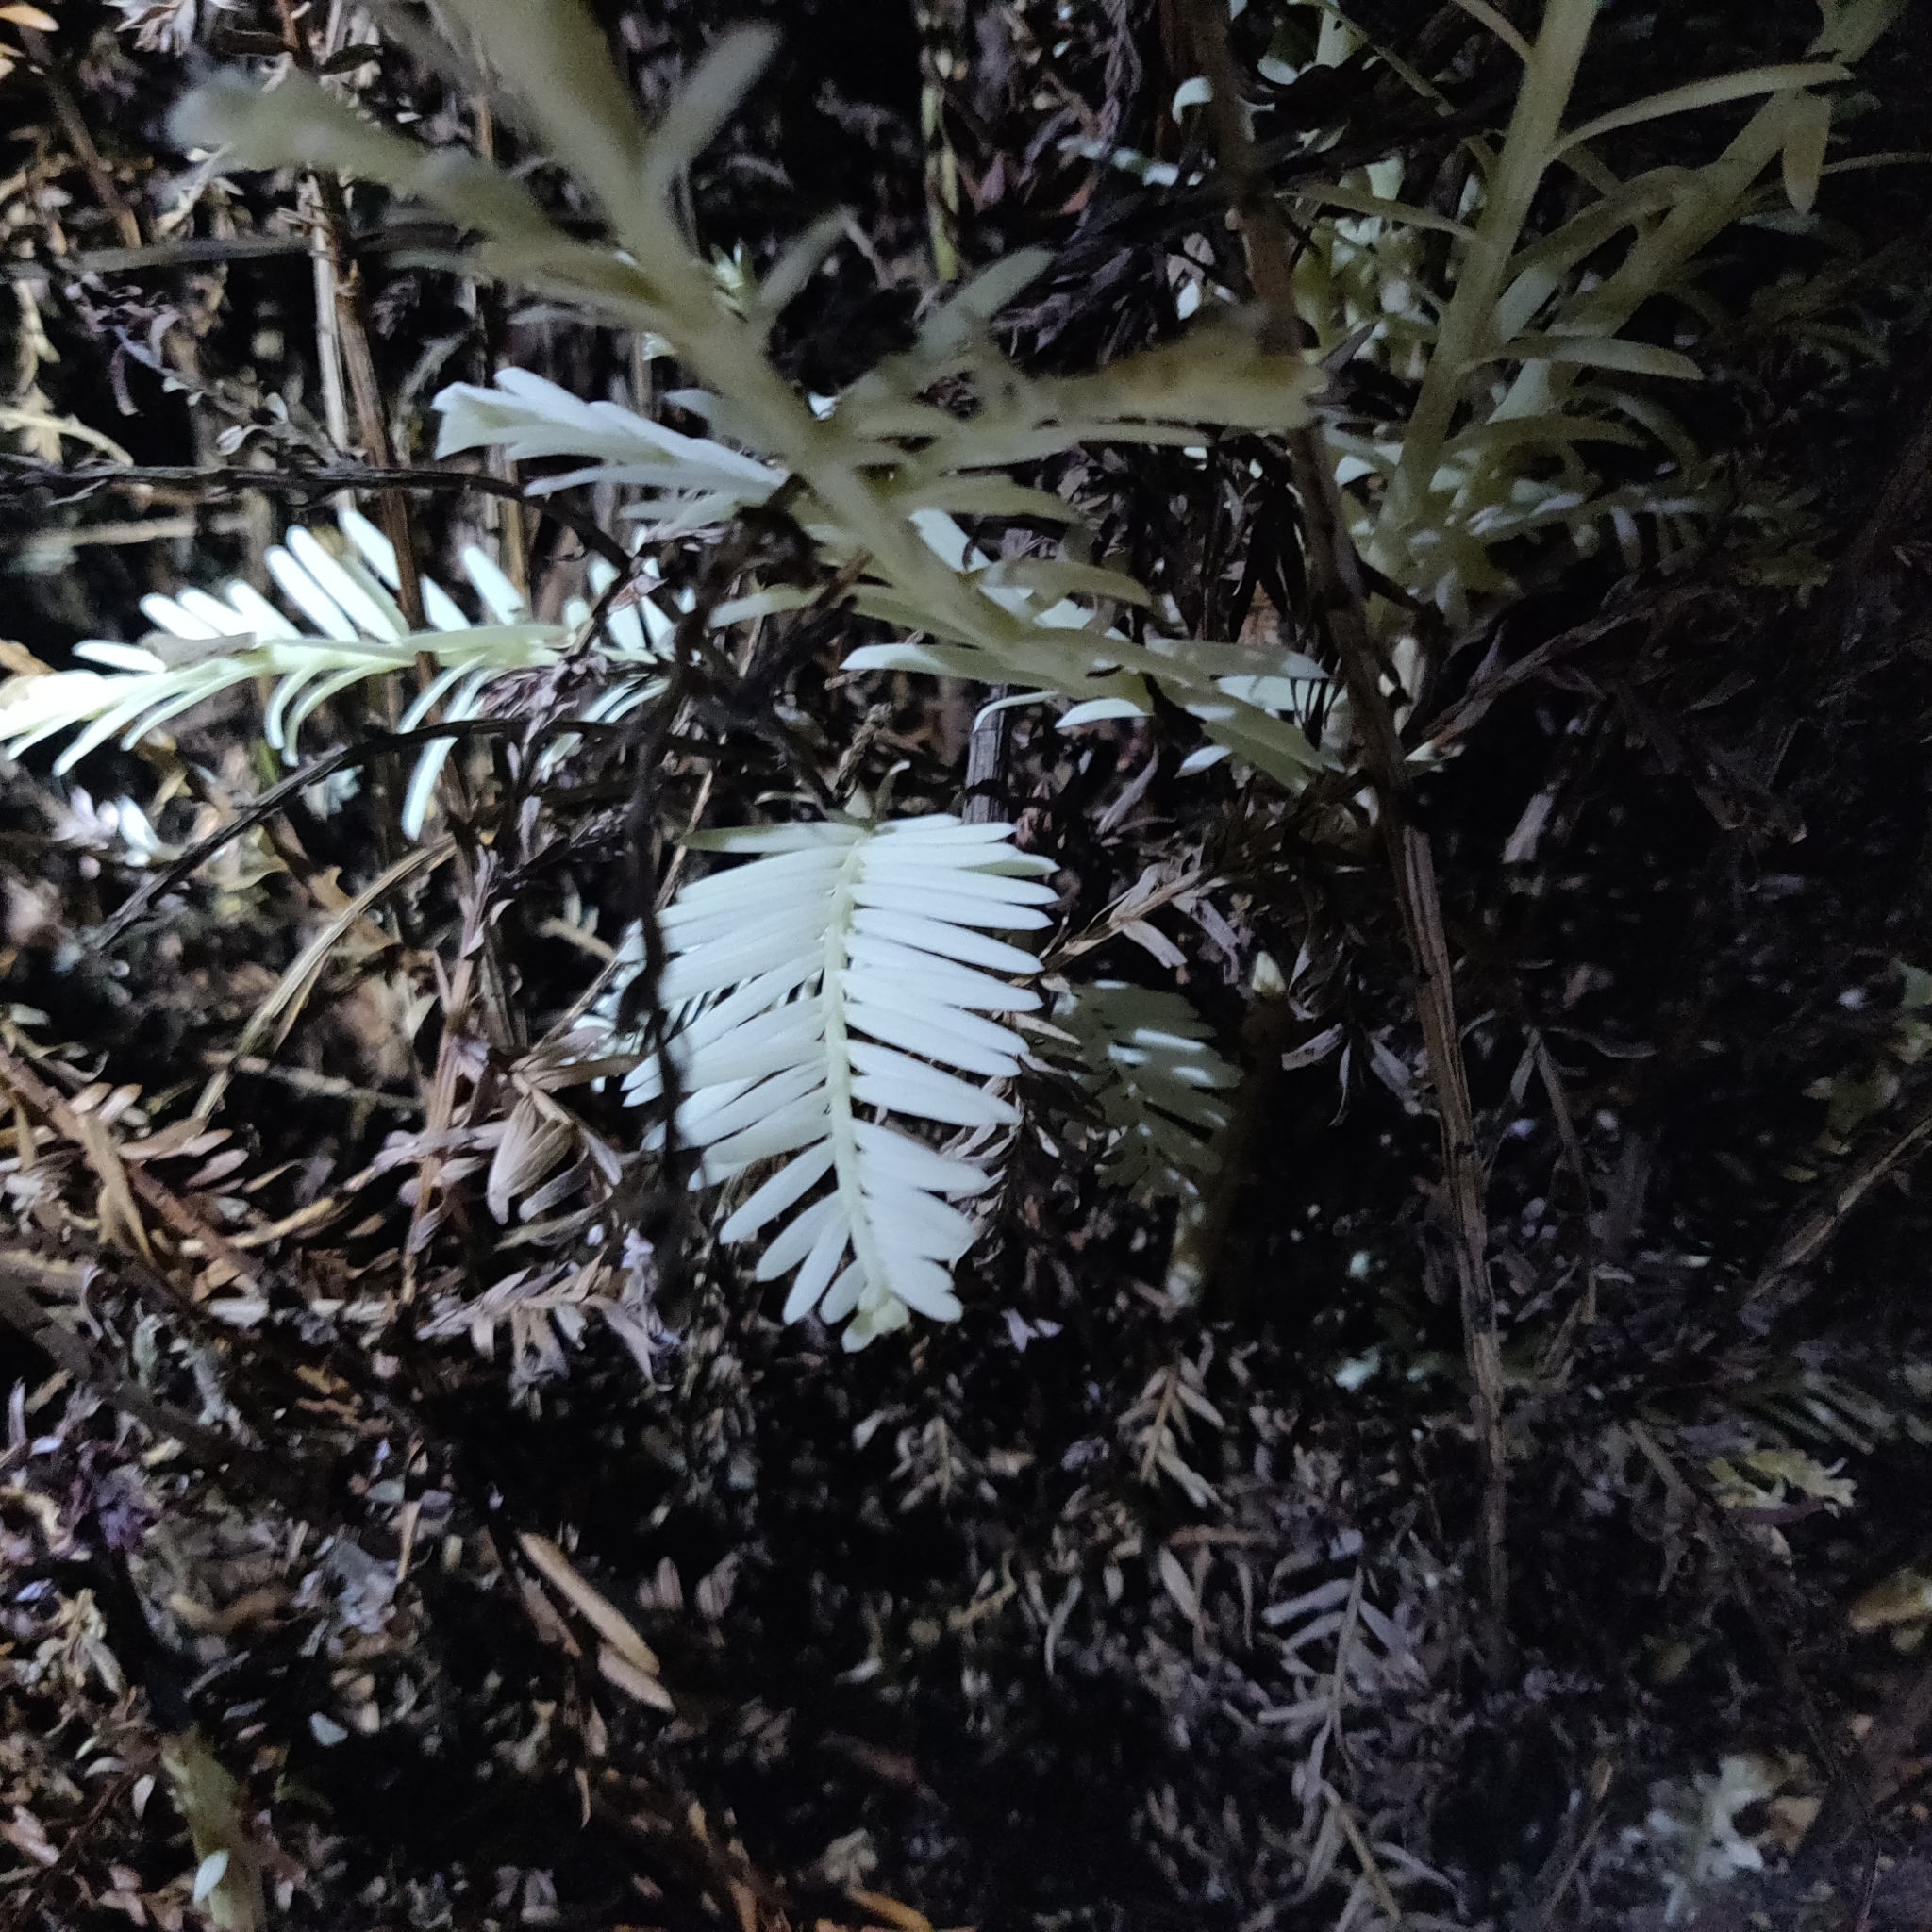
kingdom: Plantae
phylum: Tracheophyta
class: Pinopsida
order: Pinales
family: Cupressaceae
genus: Sequoia
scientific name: Sequoia sempervirens
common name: Coast redwood
